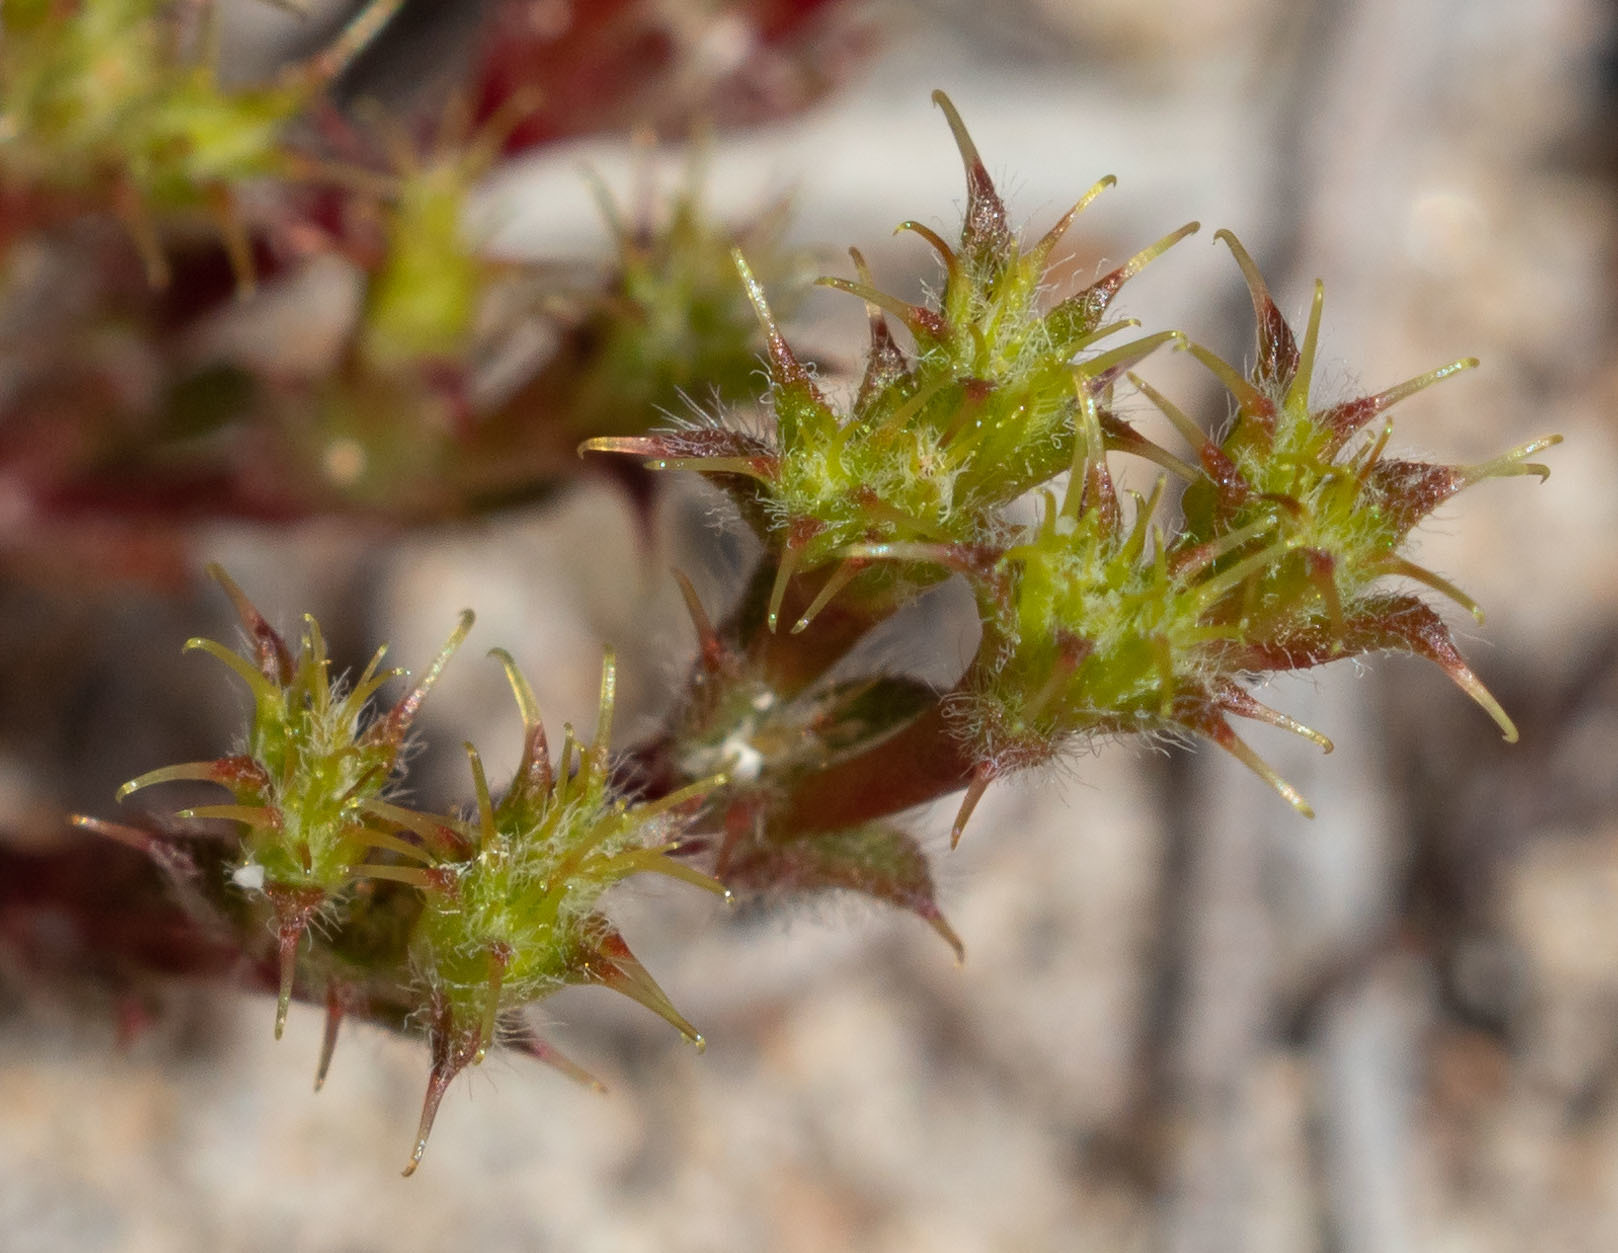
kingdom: Plantae
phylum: Tracheophyta
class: Magnoliopsida
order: Caryophyllales
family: Polygonaceae
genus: Lastarriaea
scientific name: Lastarriaea coriacea
